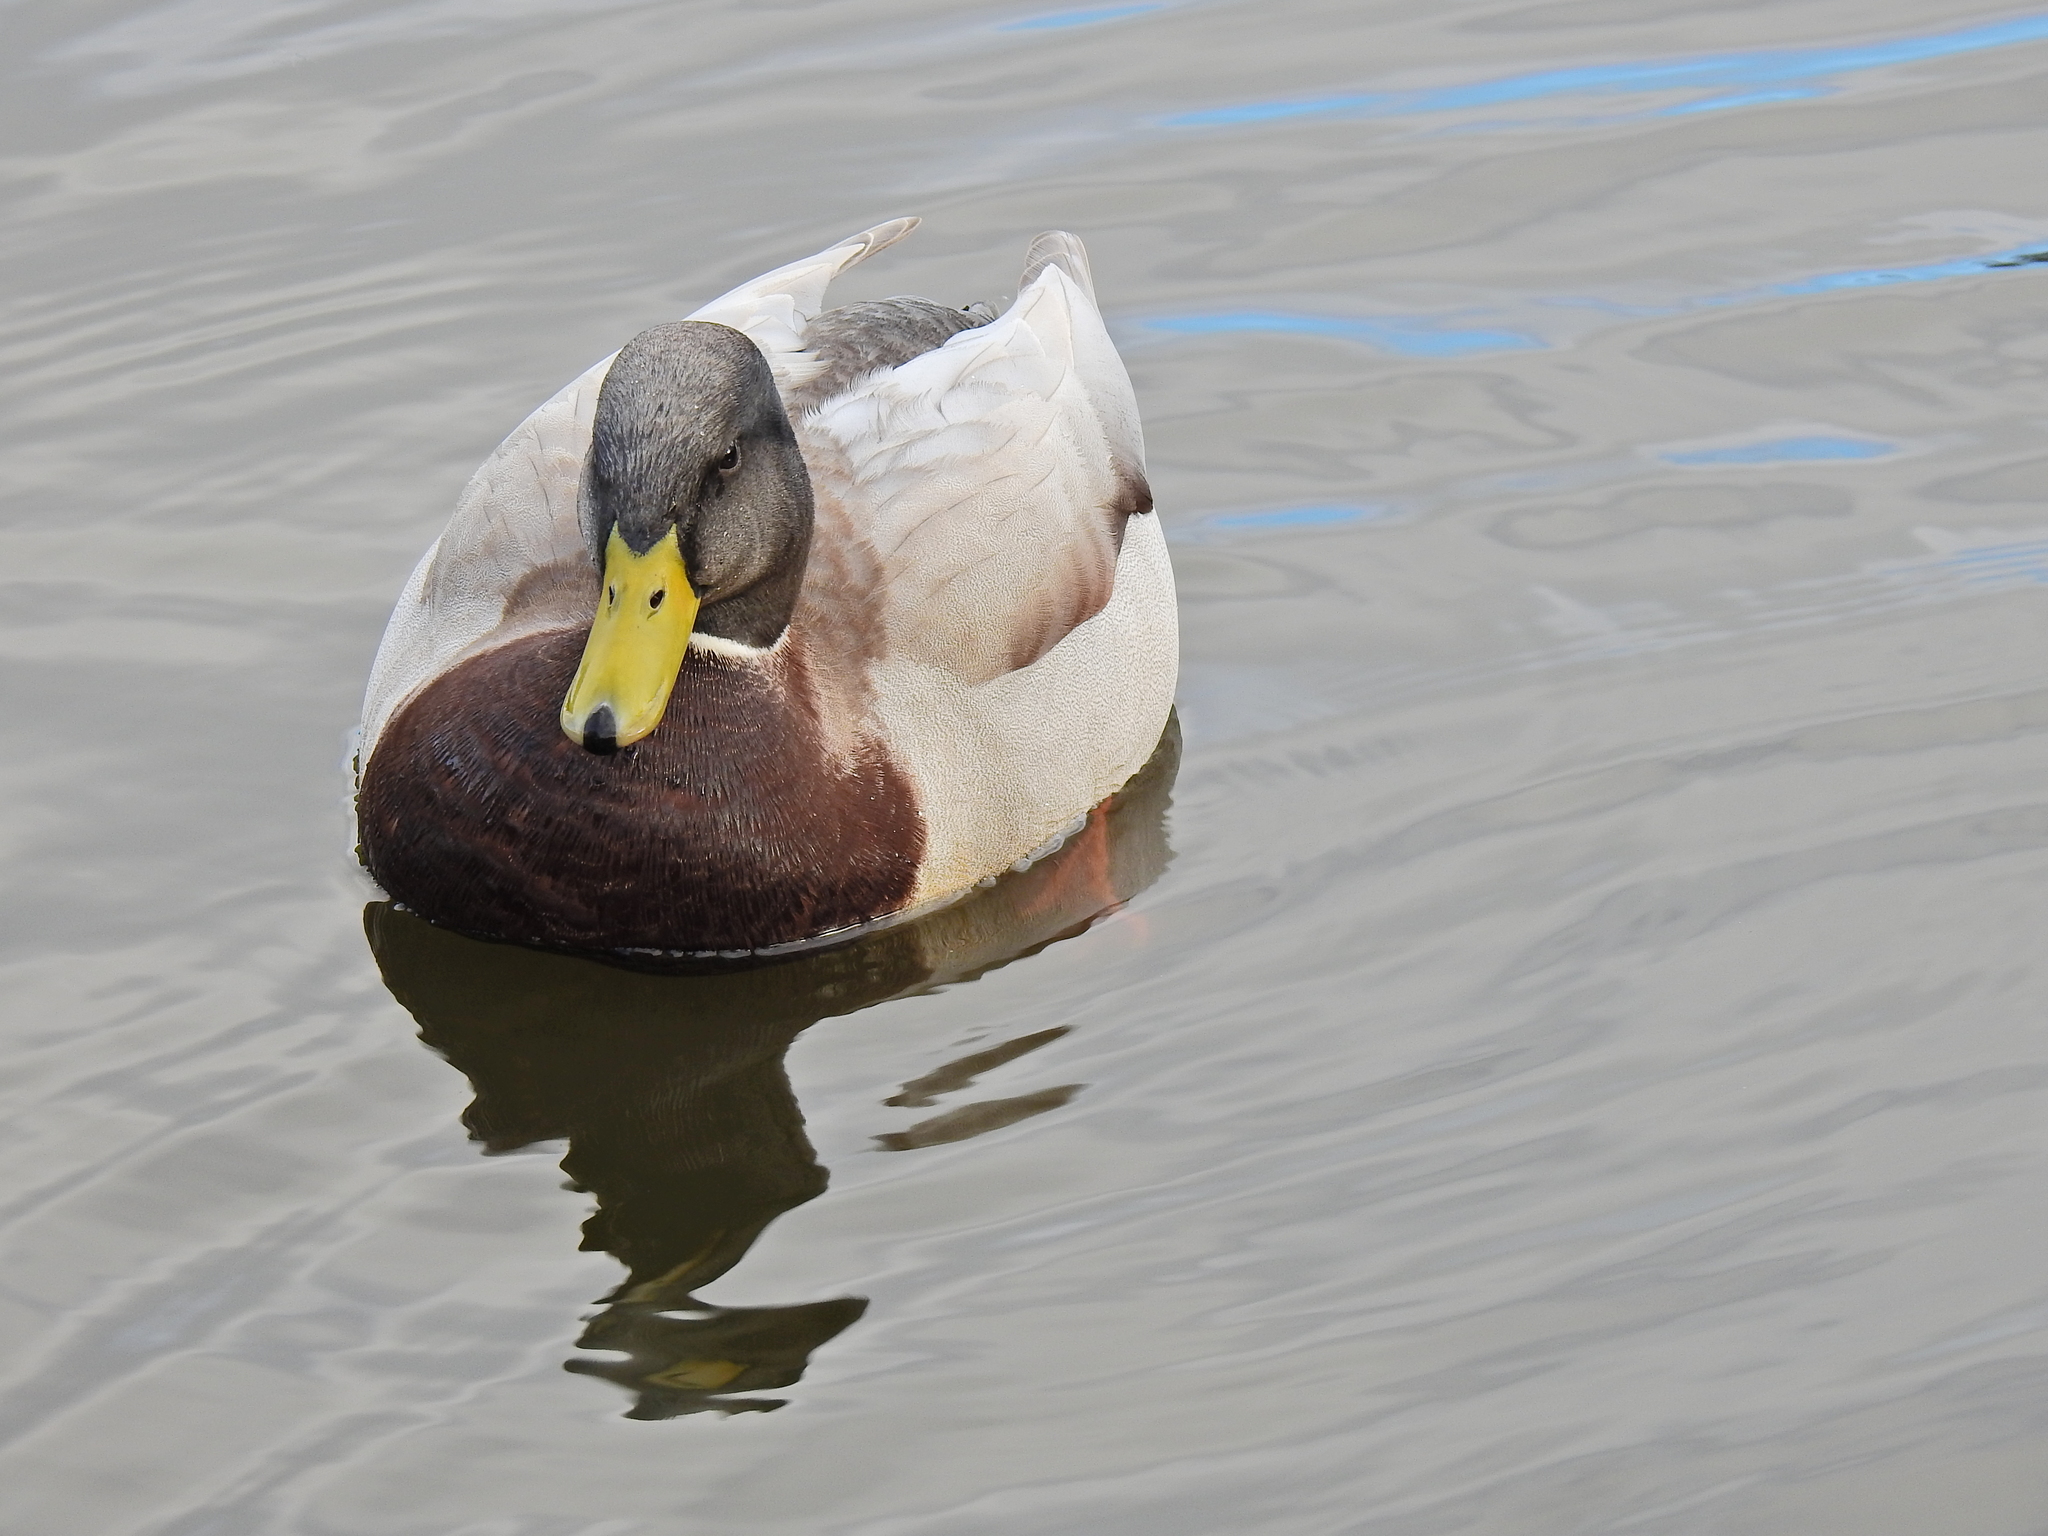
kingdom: Animalia
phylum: Chordata
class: Aves
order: Anseriformes
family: Anatidae
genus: Anas
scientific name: Anas platyrhynchos
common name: Mallard
